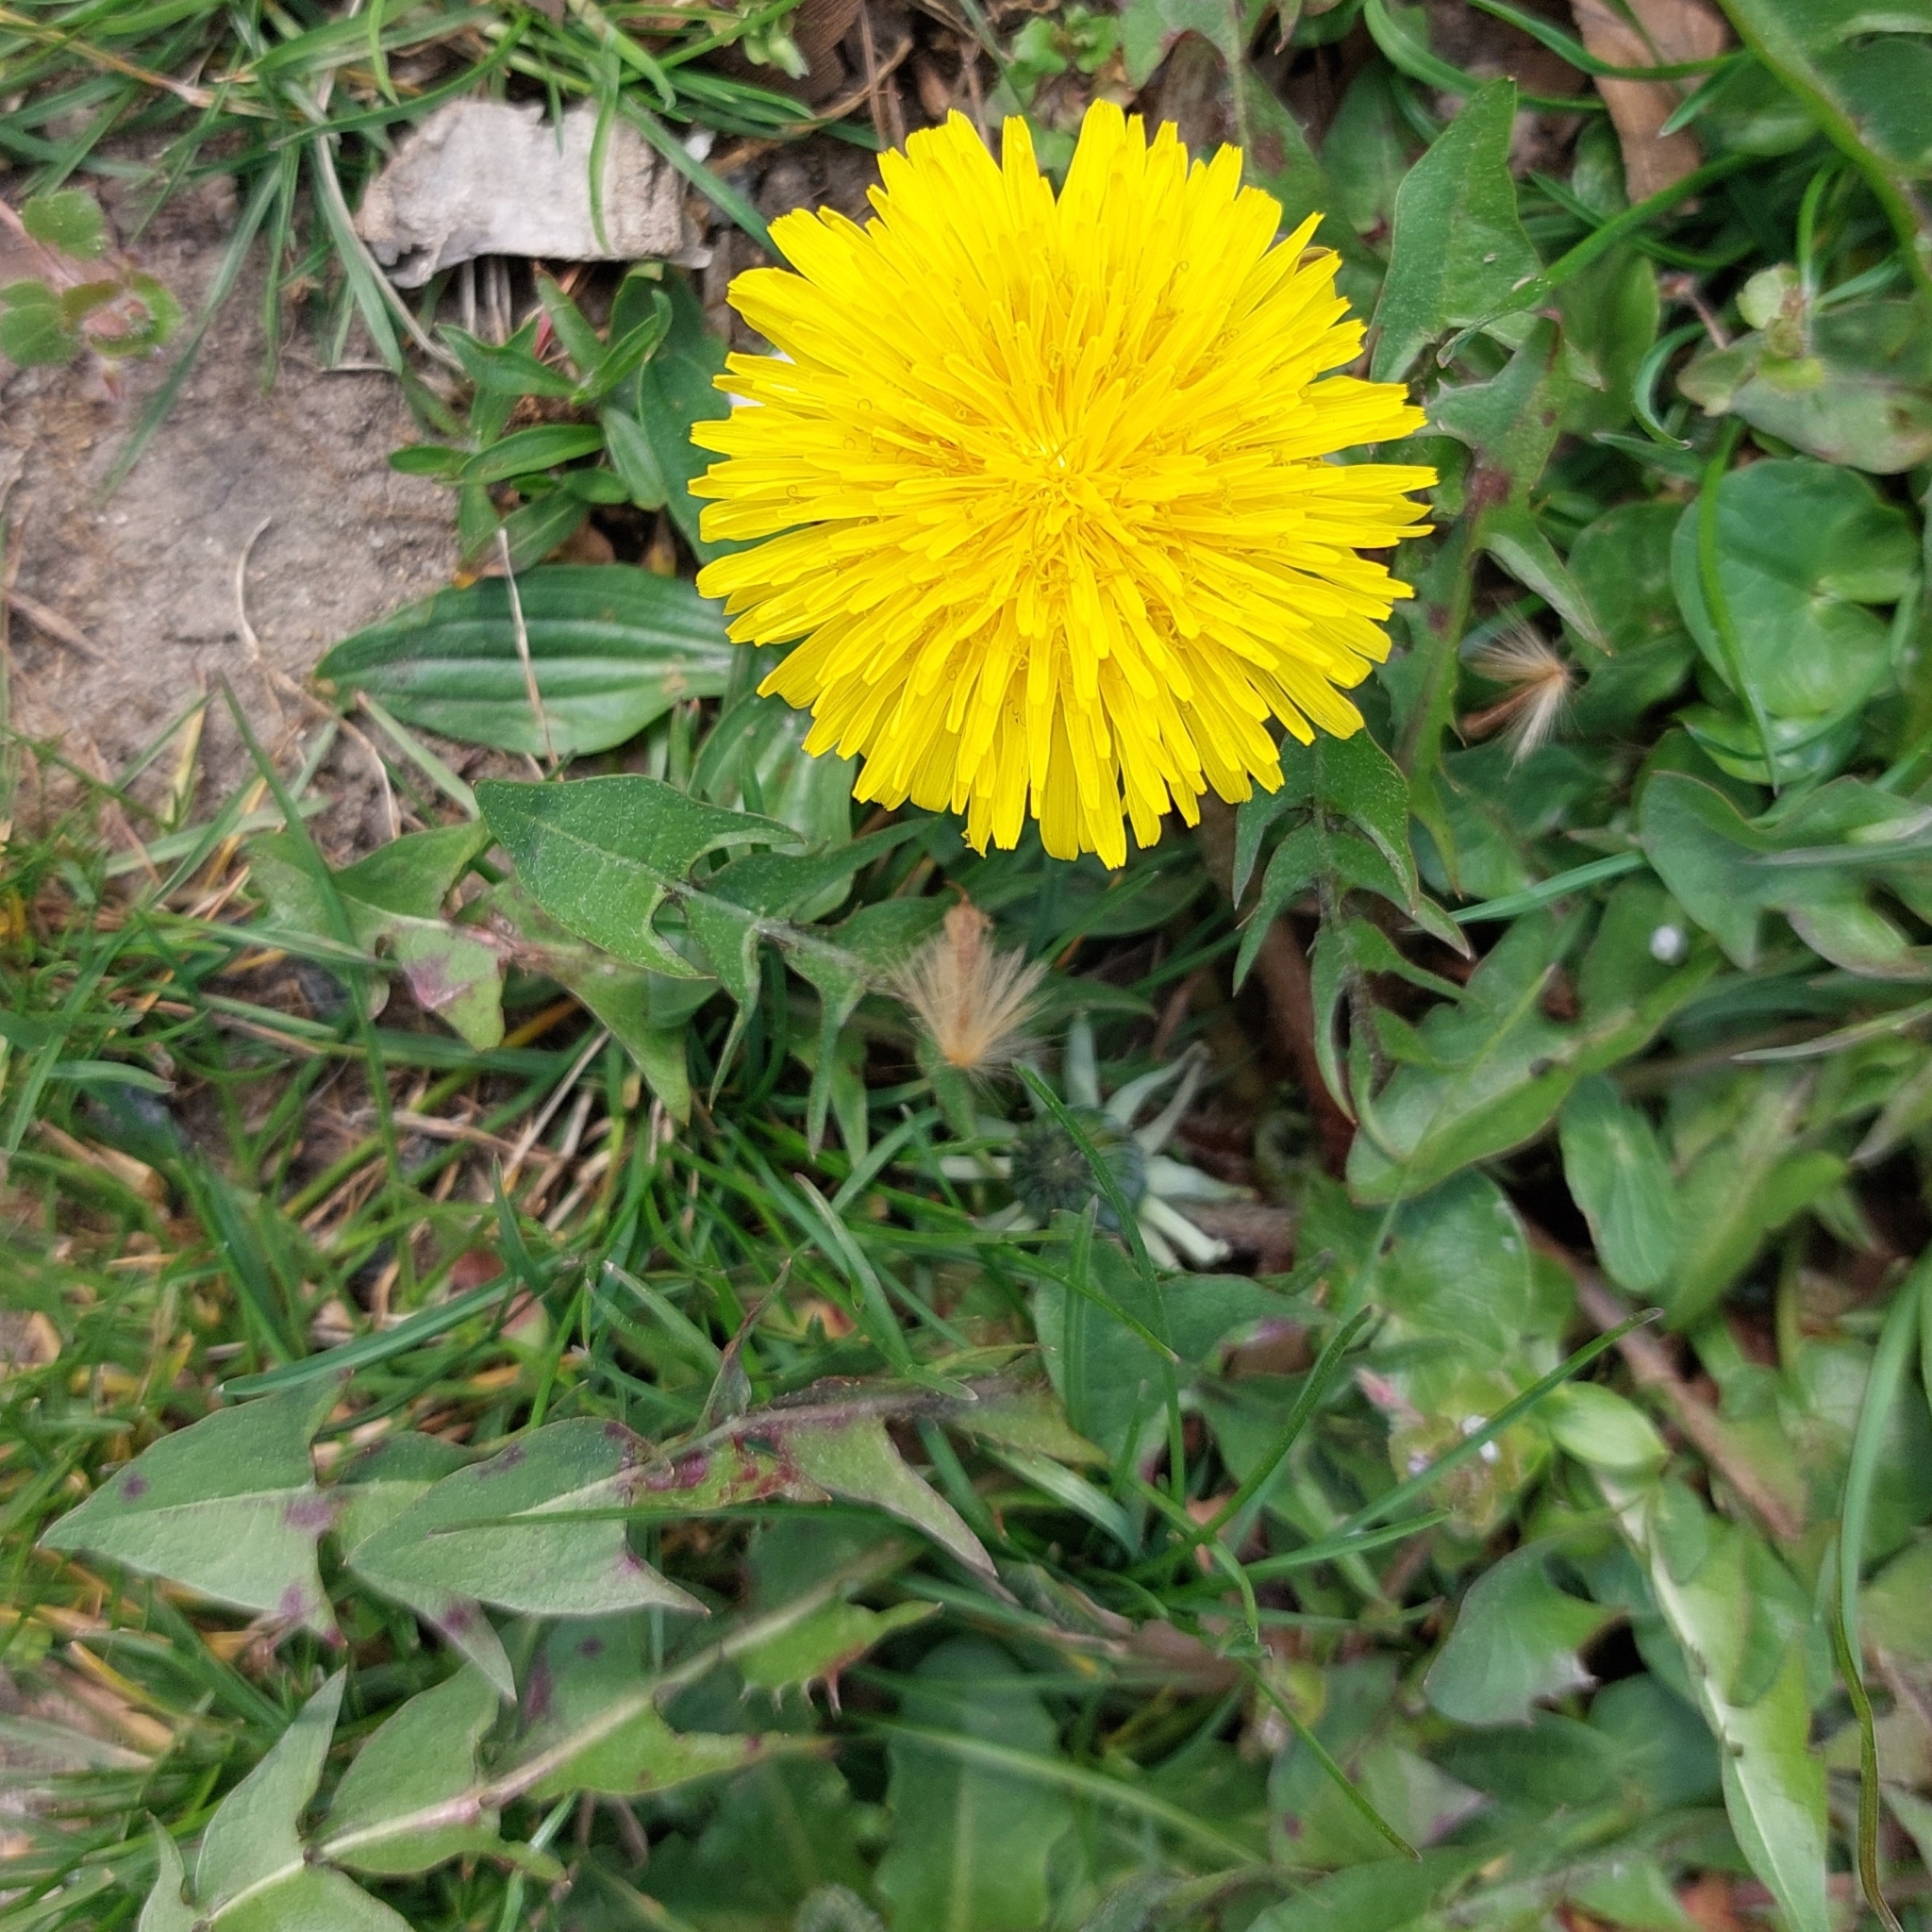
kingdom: Plantae
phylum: Tracheophyta
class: Magnoliopsida
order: Asterales
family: Asteraceae
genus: Taraxacum
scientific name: Taraxacum officinale
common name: Common dandelion
